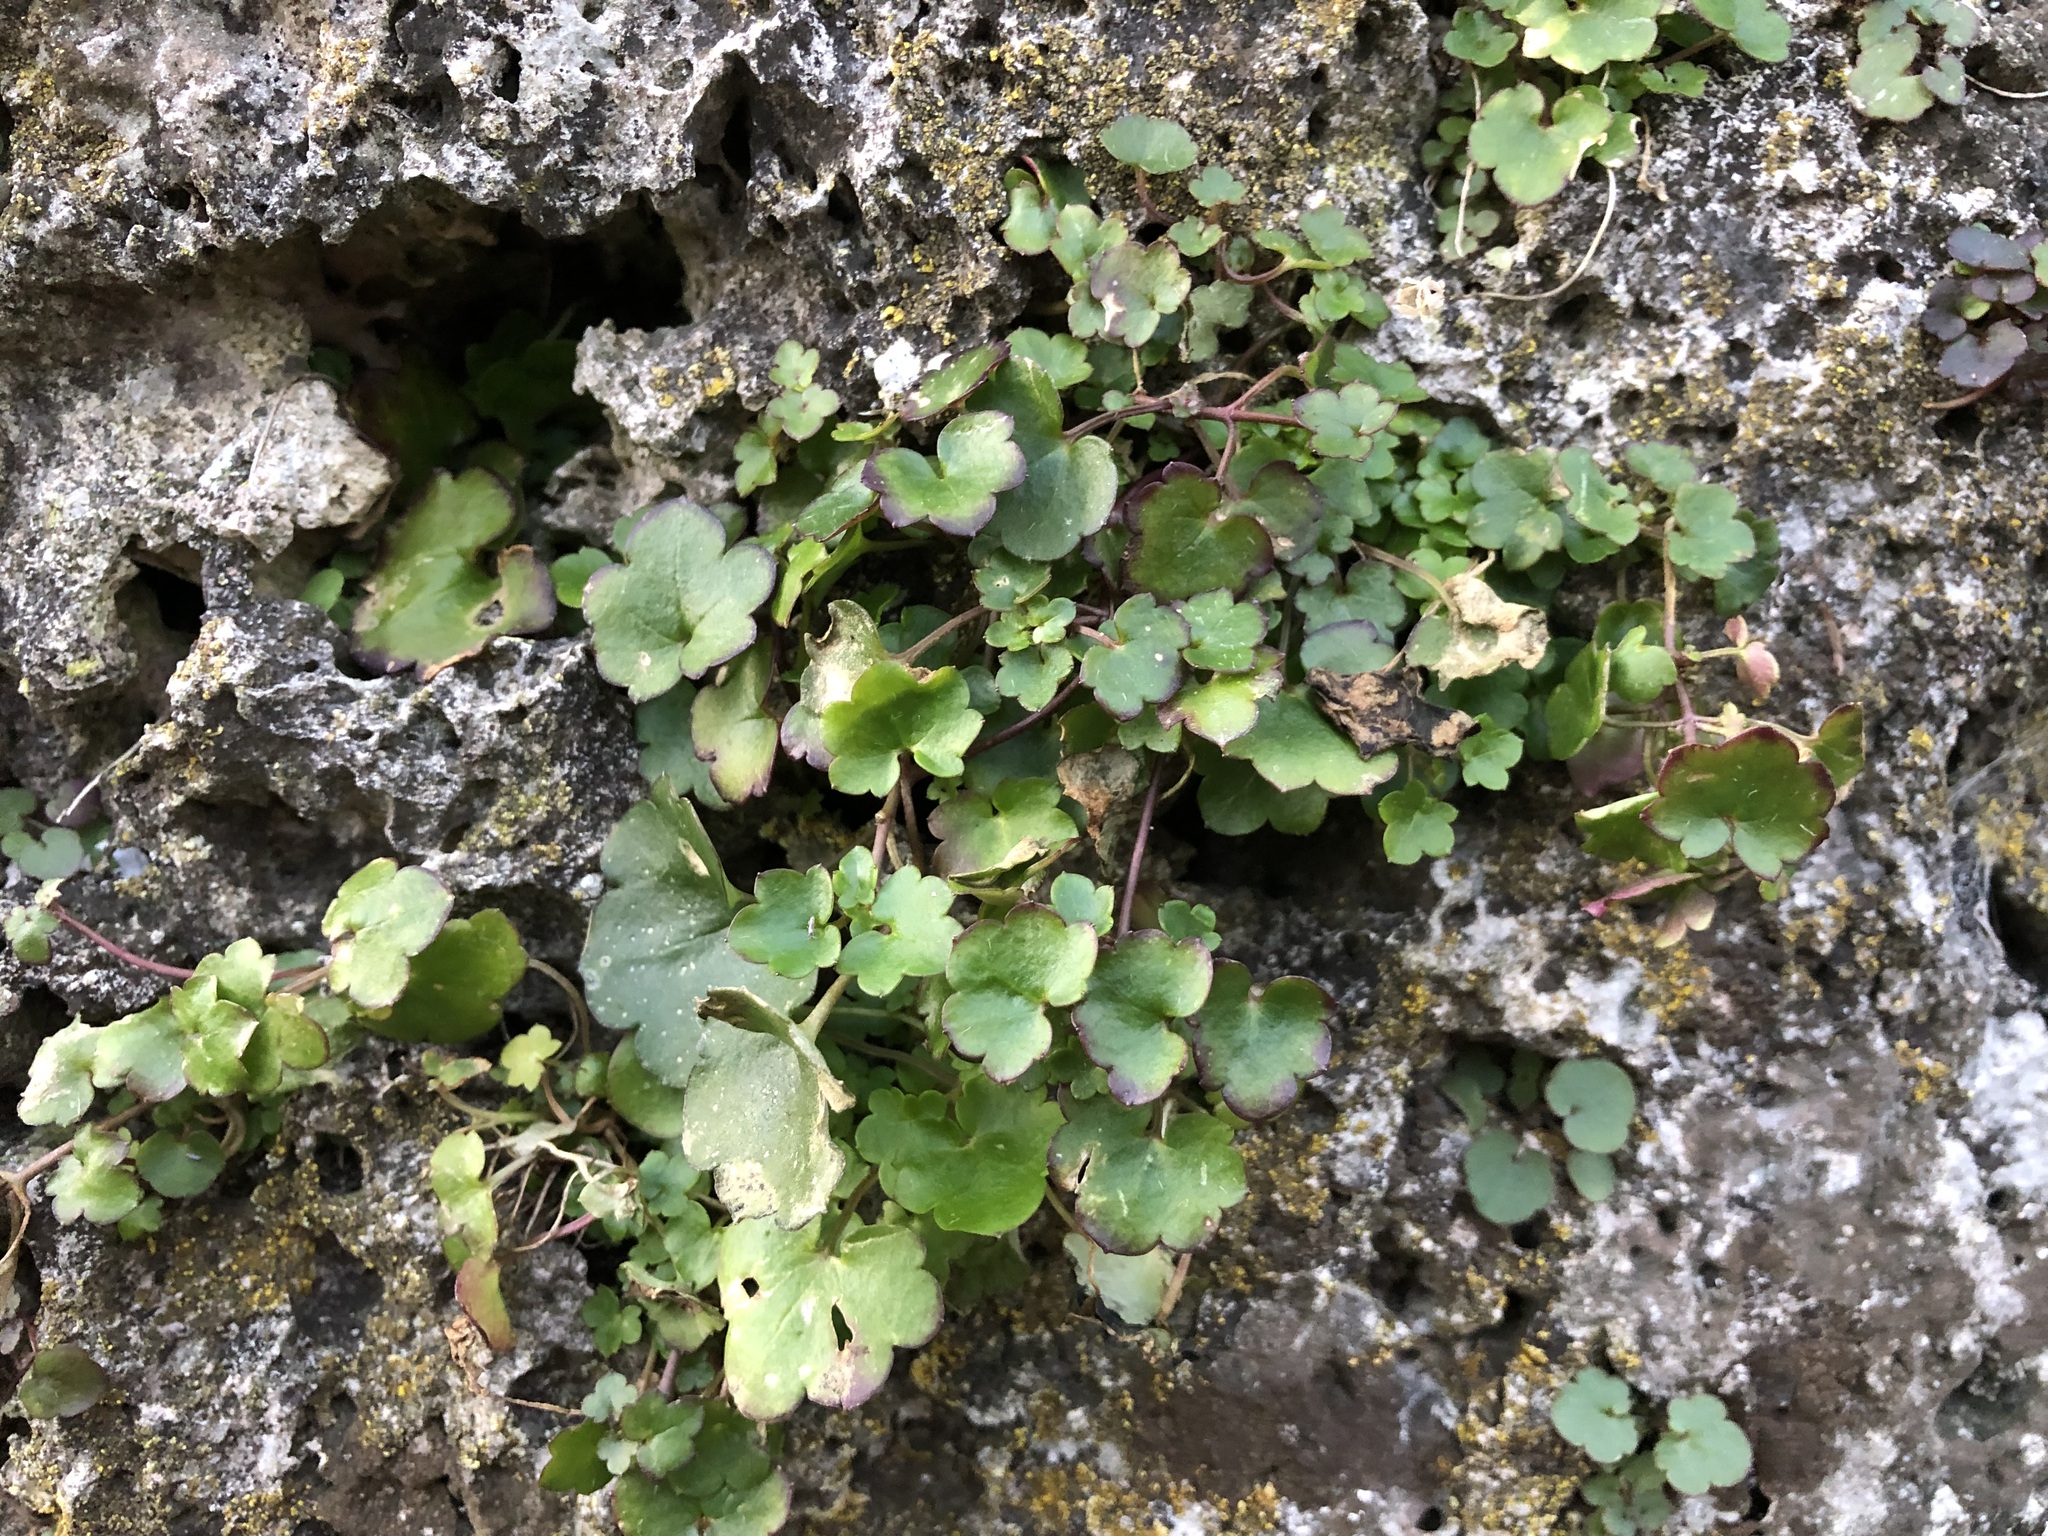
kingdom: Plantae
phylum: Tracheophyta
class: Magnoliopsida
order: Lamiales
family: Plantaginaceae
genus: Cymbalaria
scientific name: Cymbalaria muralis
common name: Ivy-leaved toadflax
